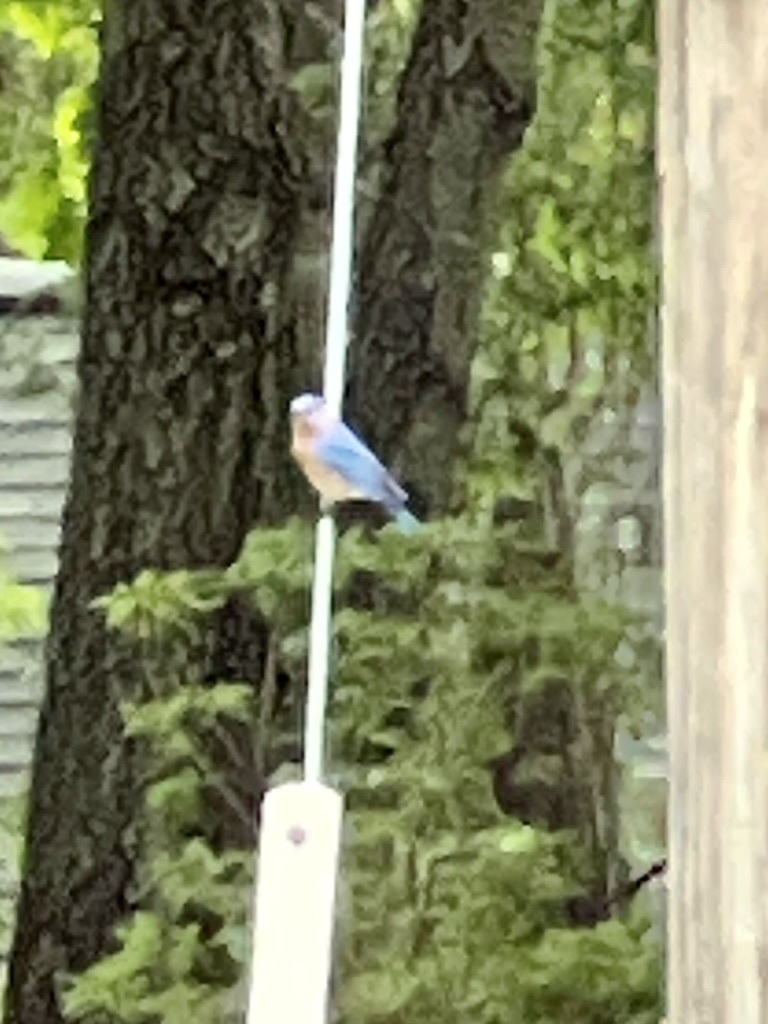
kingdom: Animalia
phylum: Chordata
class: Aves
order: Passeriformes
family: Turdidae
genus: Sialia
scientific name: Sialia sialis
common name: Eastern bluebird
